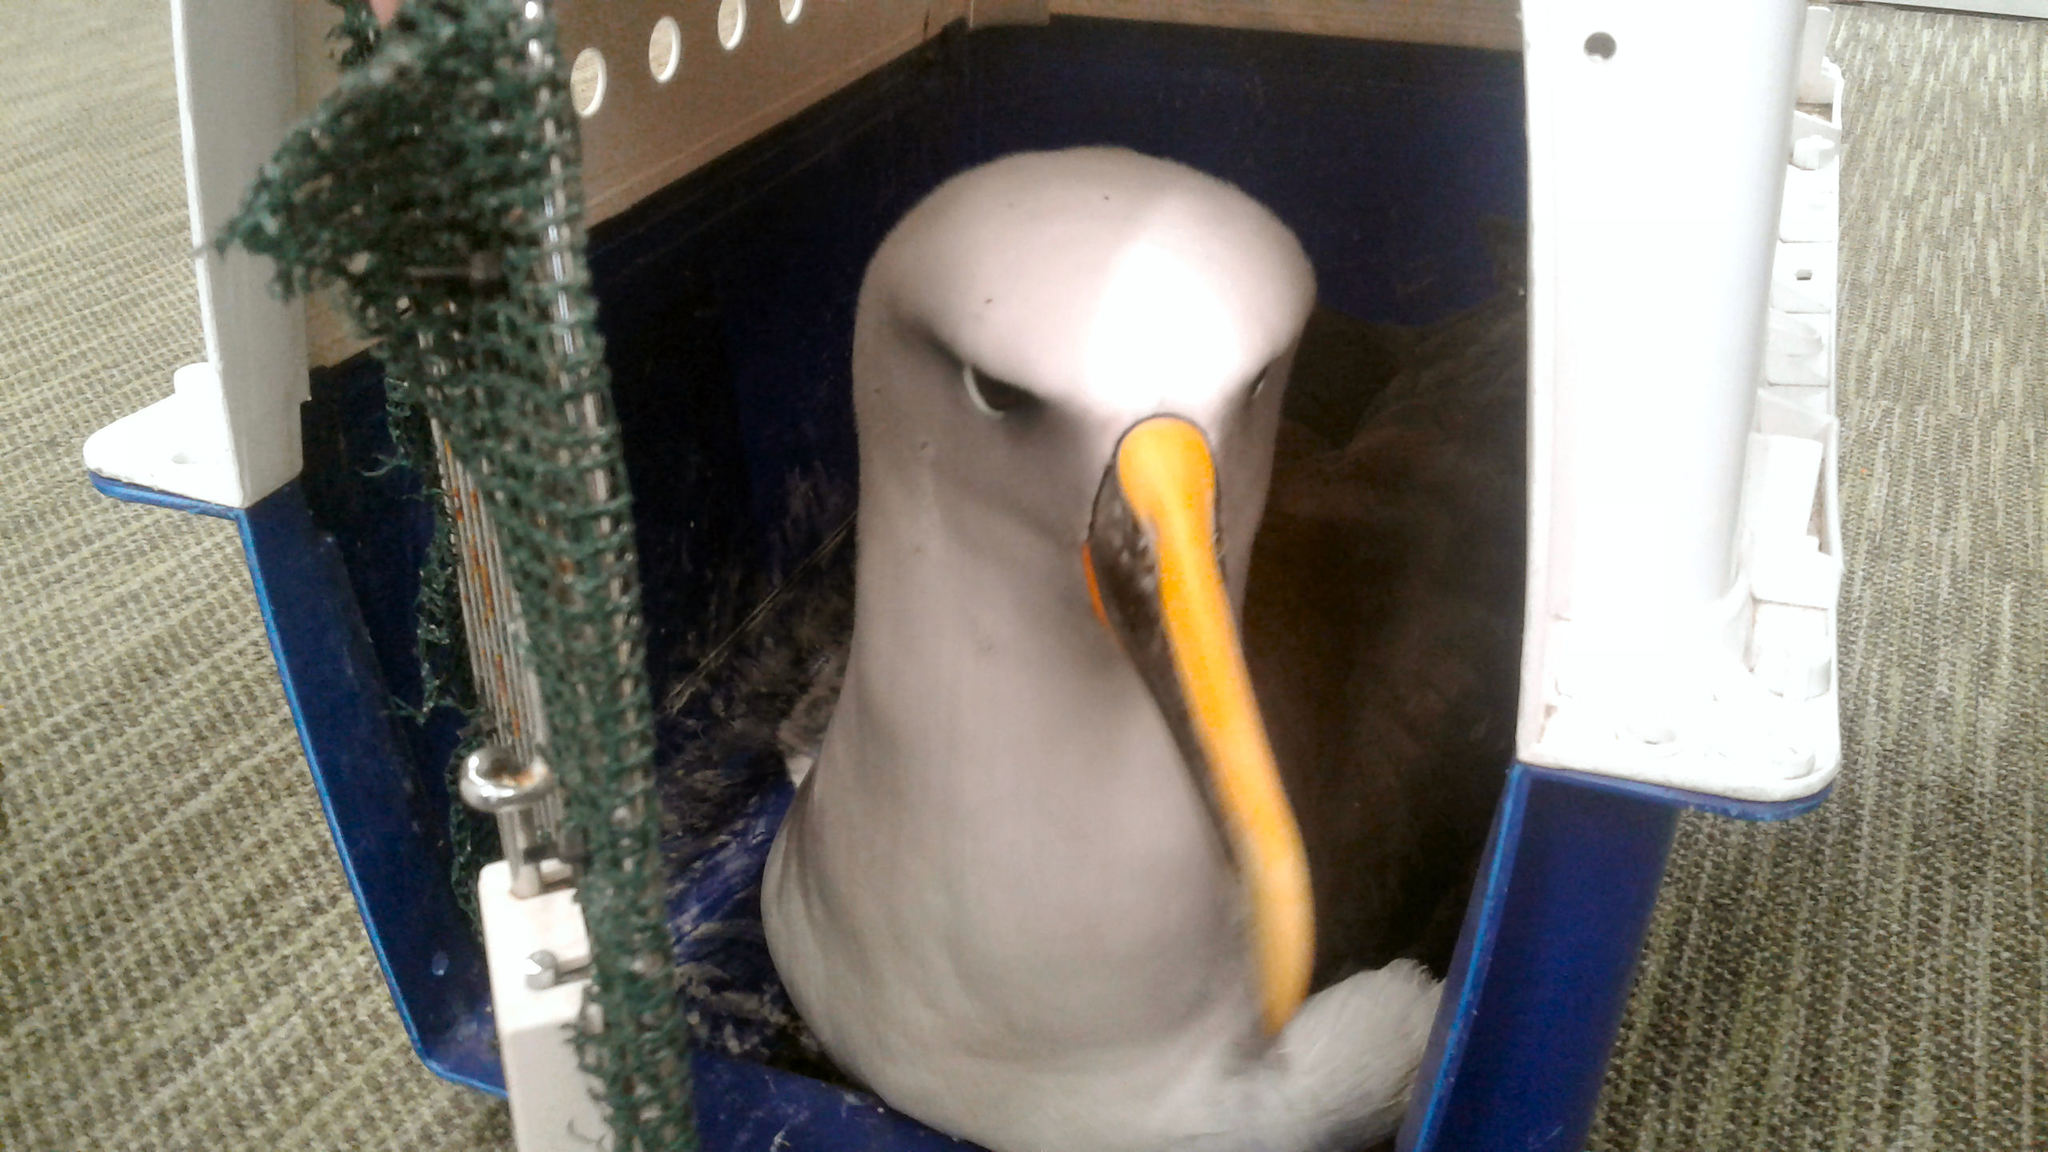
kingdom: Animalia
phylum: Chordata
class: Aves
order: Procellariiformes
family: Diomedeidae
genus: Thalassarche
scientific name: Thalassarche bulleri
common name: Buller's albatross
